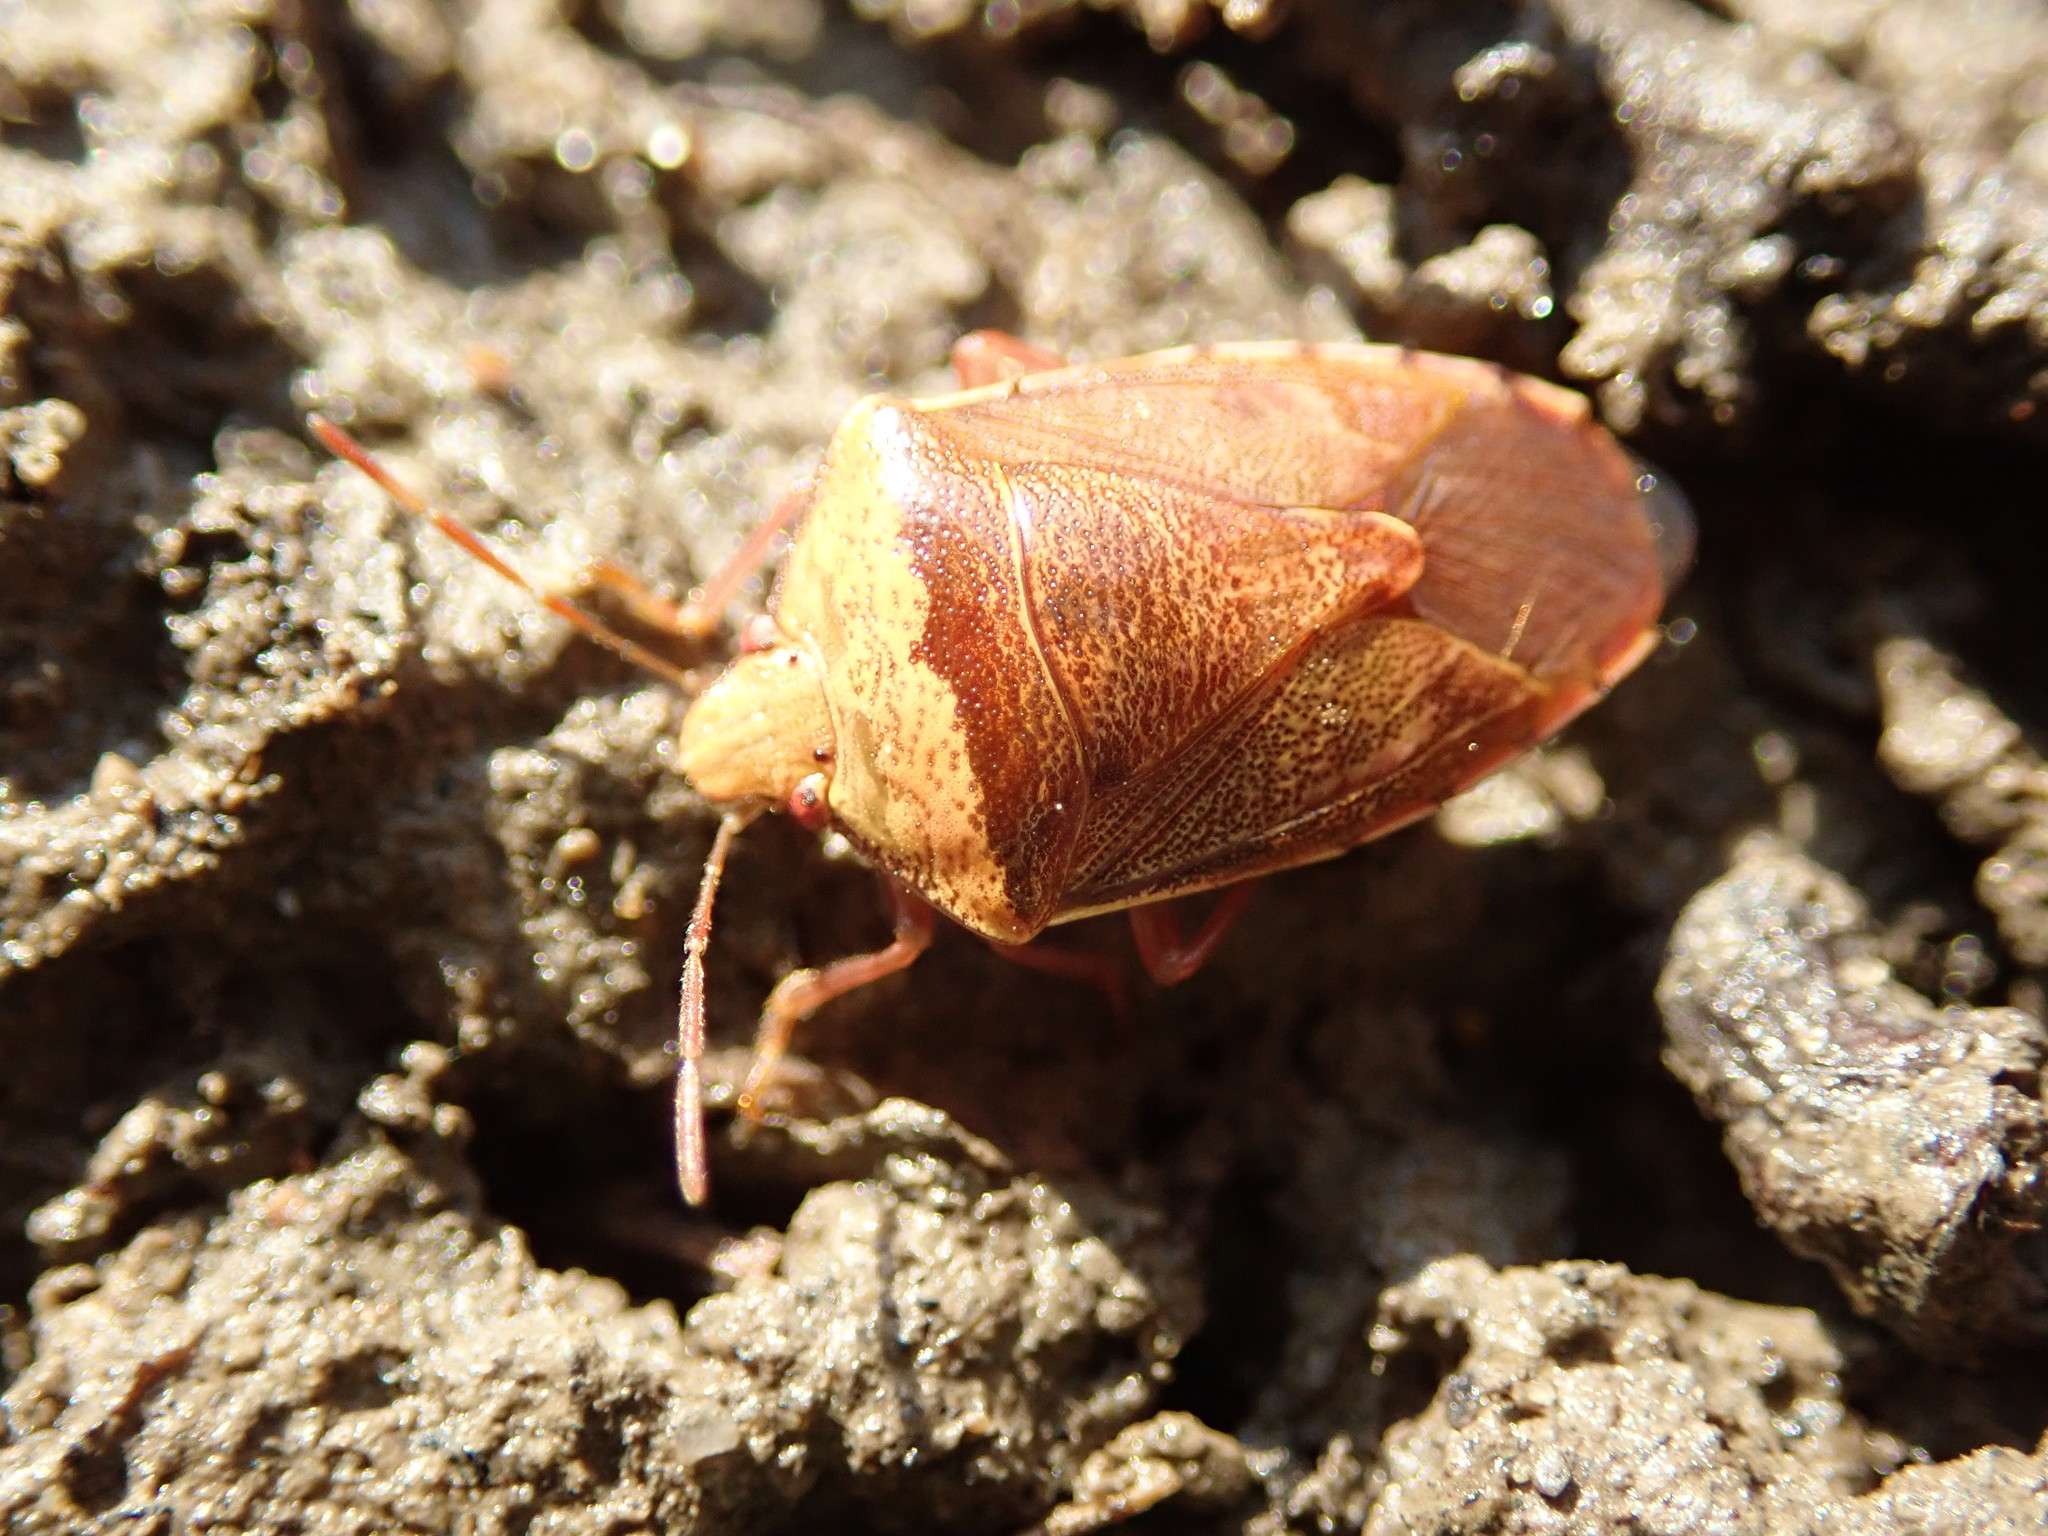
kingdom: Animalia
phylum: Arthropoda
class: Insecta
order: Hemiptera
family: Pentatomidae
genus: Banasa
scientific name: Banasa calva
